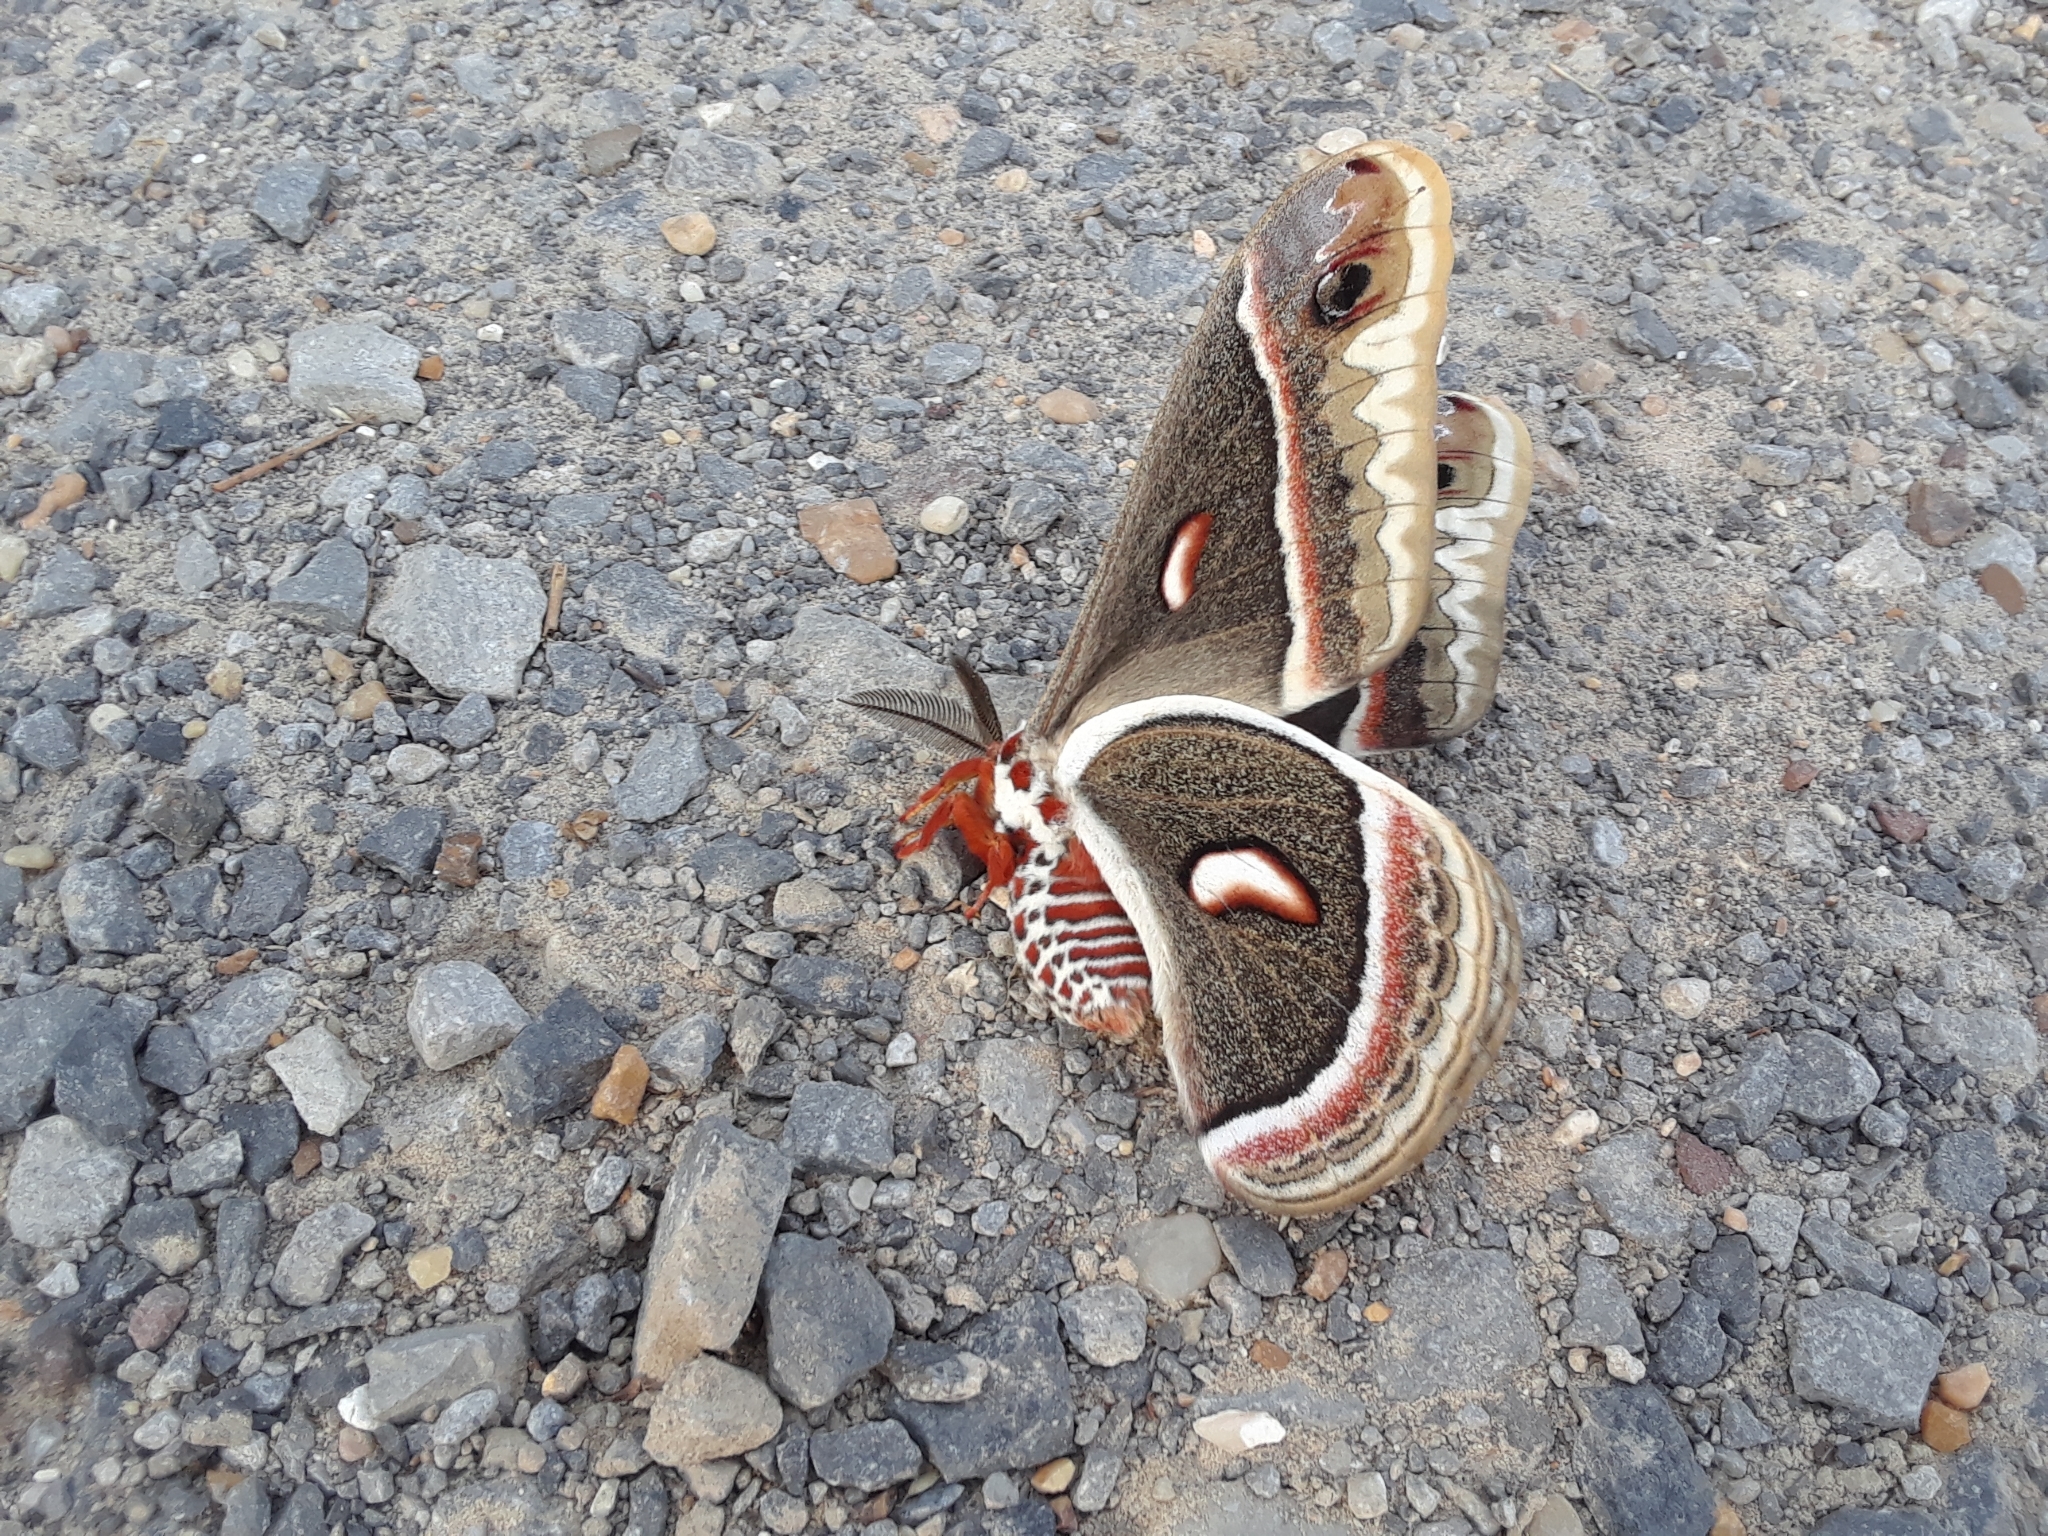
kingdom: Animalia
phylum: Arthropoda
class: Insecta
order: Lepidoptera
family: Saturniidae
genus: Hyalophora
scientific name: Hyalophora cecropia
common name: Cecropia silkmoth
